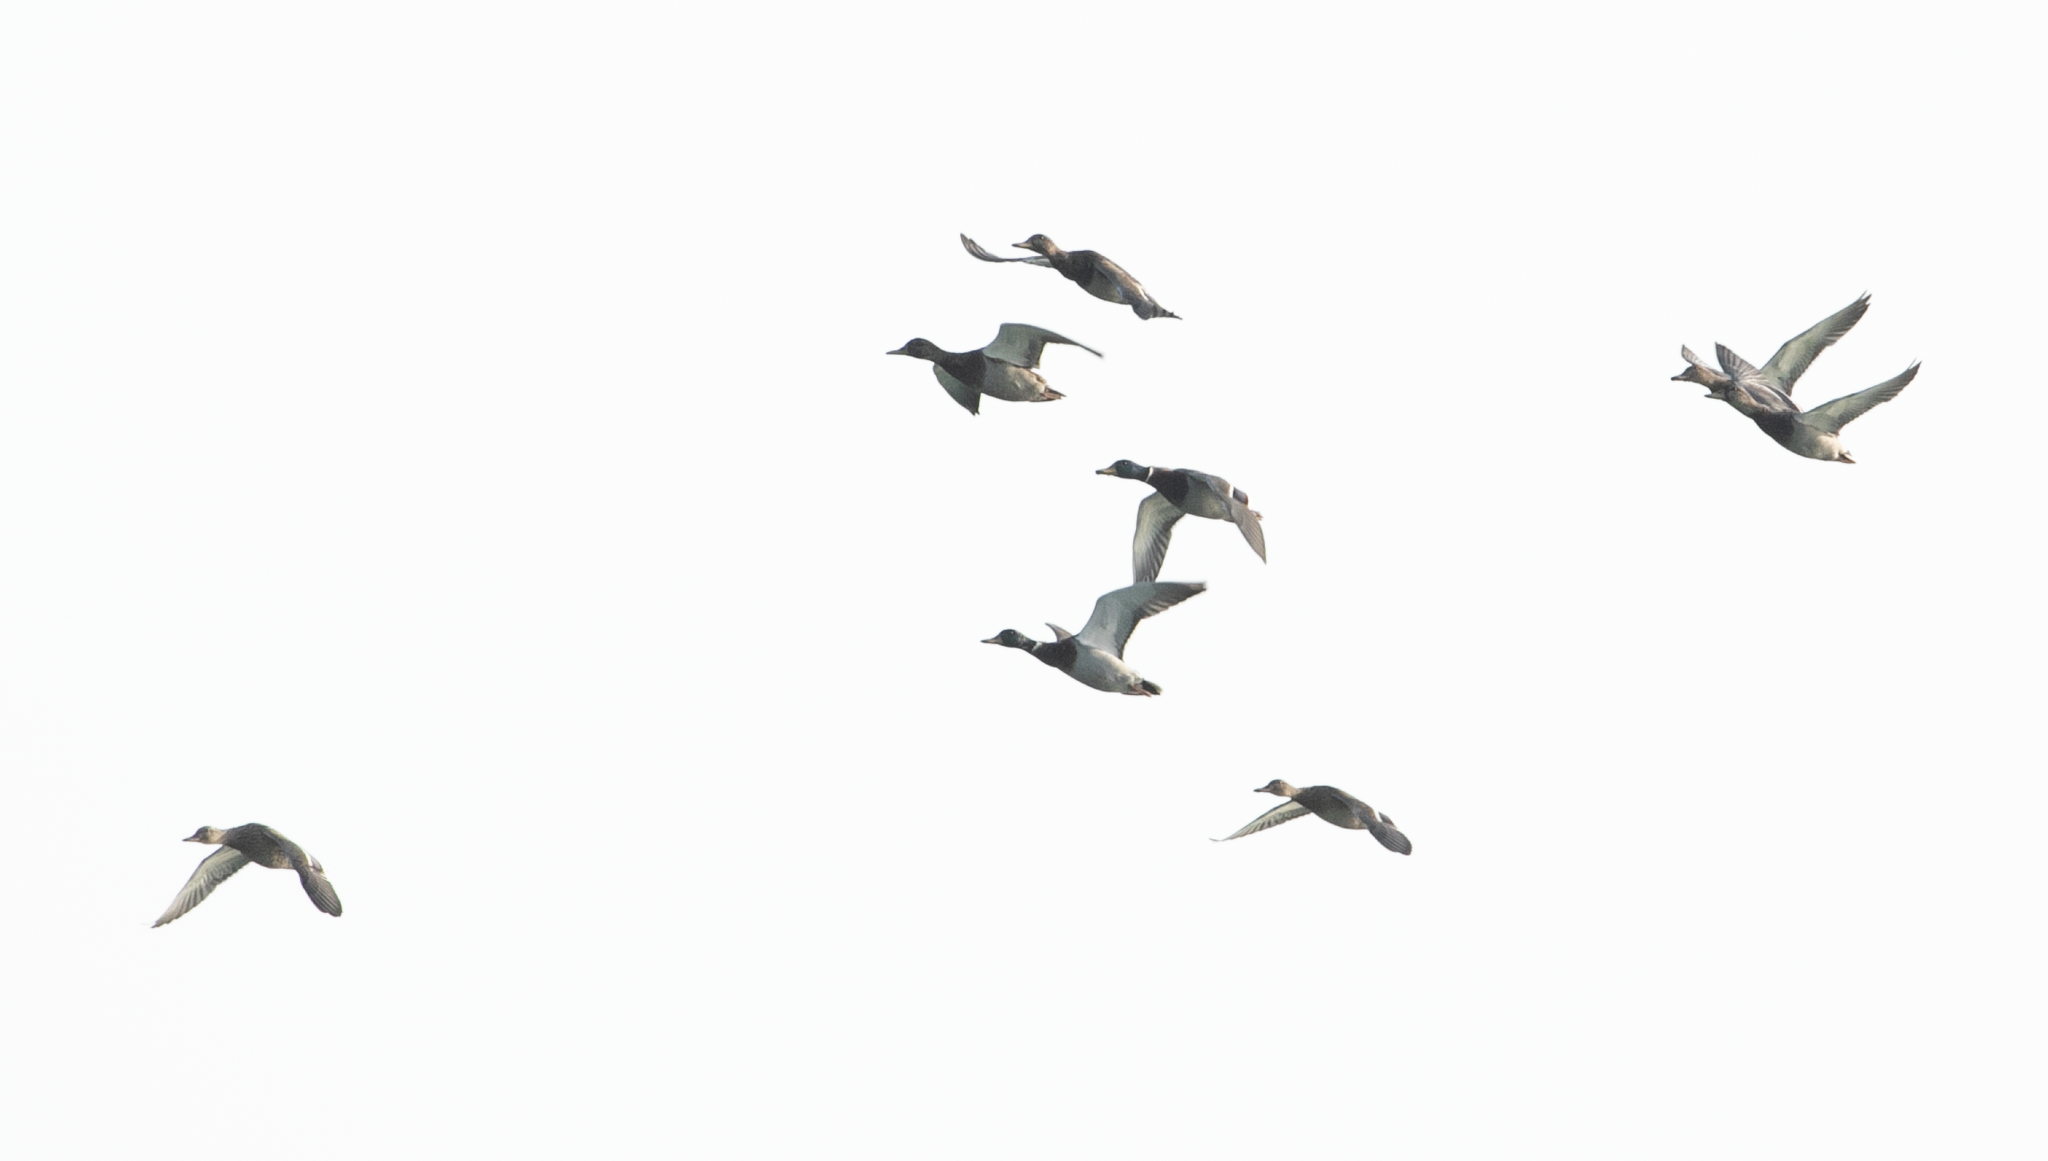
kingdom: Animalia
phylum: Chordata
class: Aves
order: Anseriformes
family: Anatidae
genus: Anas
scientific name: Anas platyrhynchos
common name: Mallard
